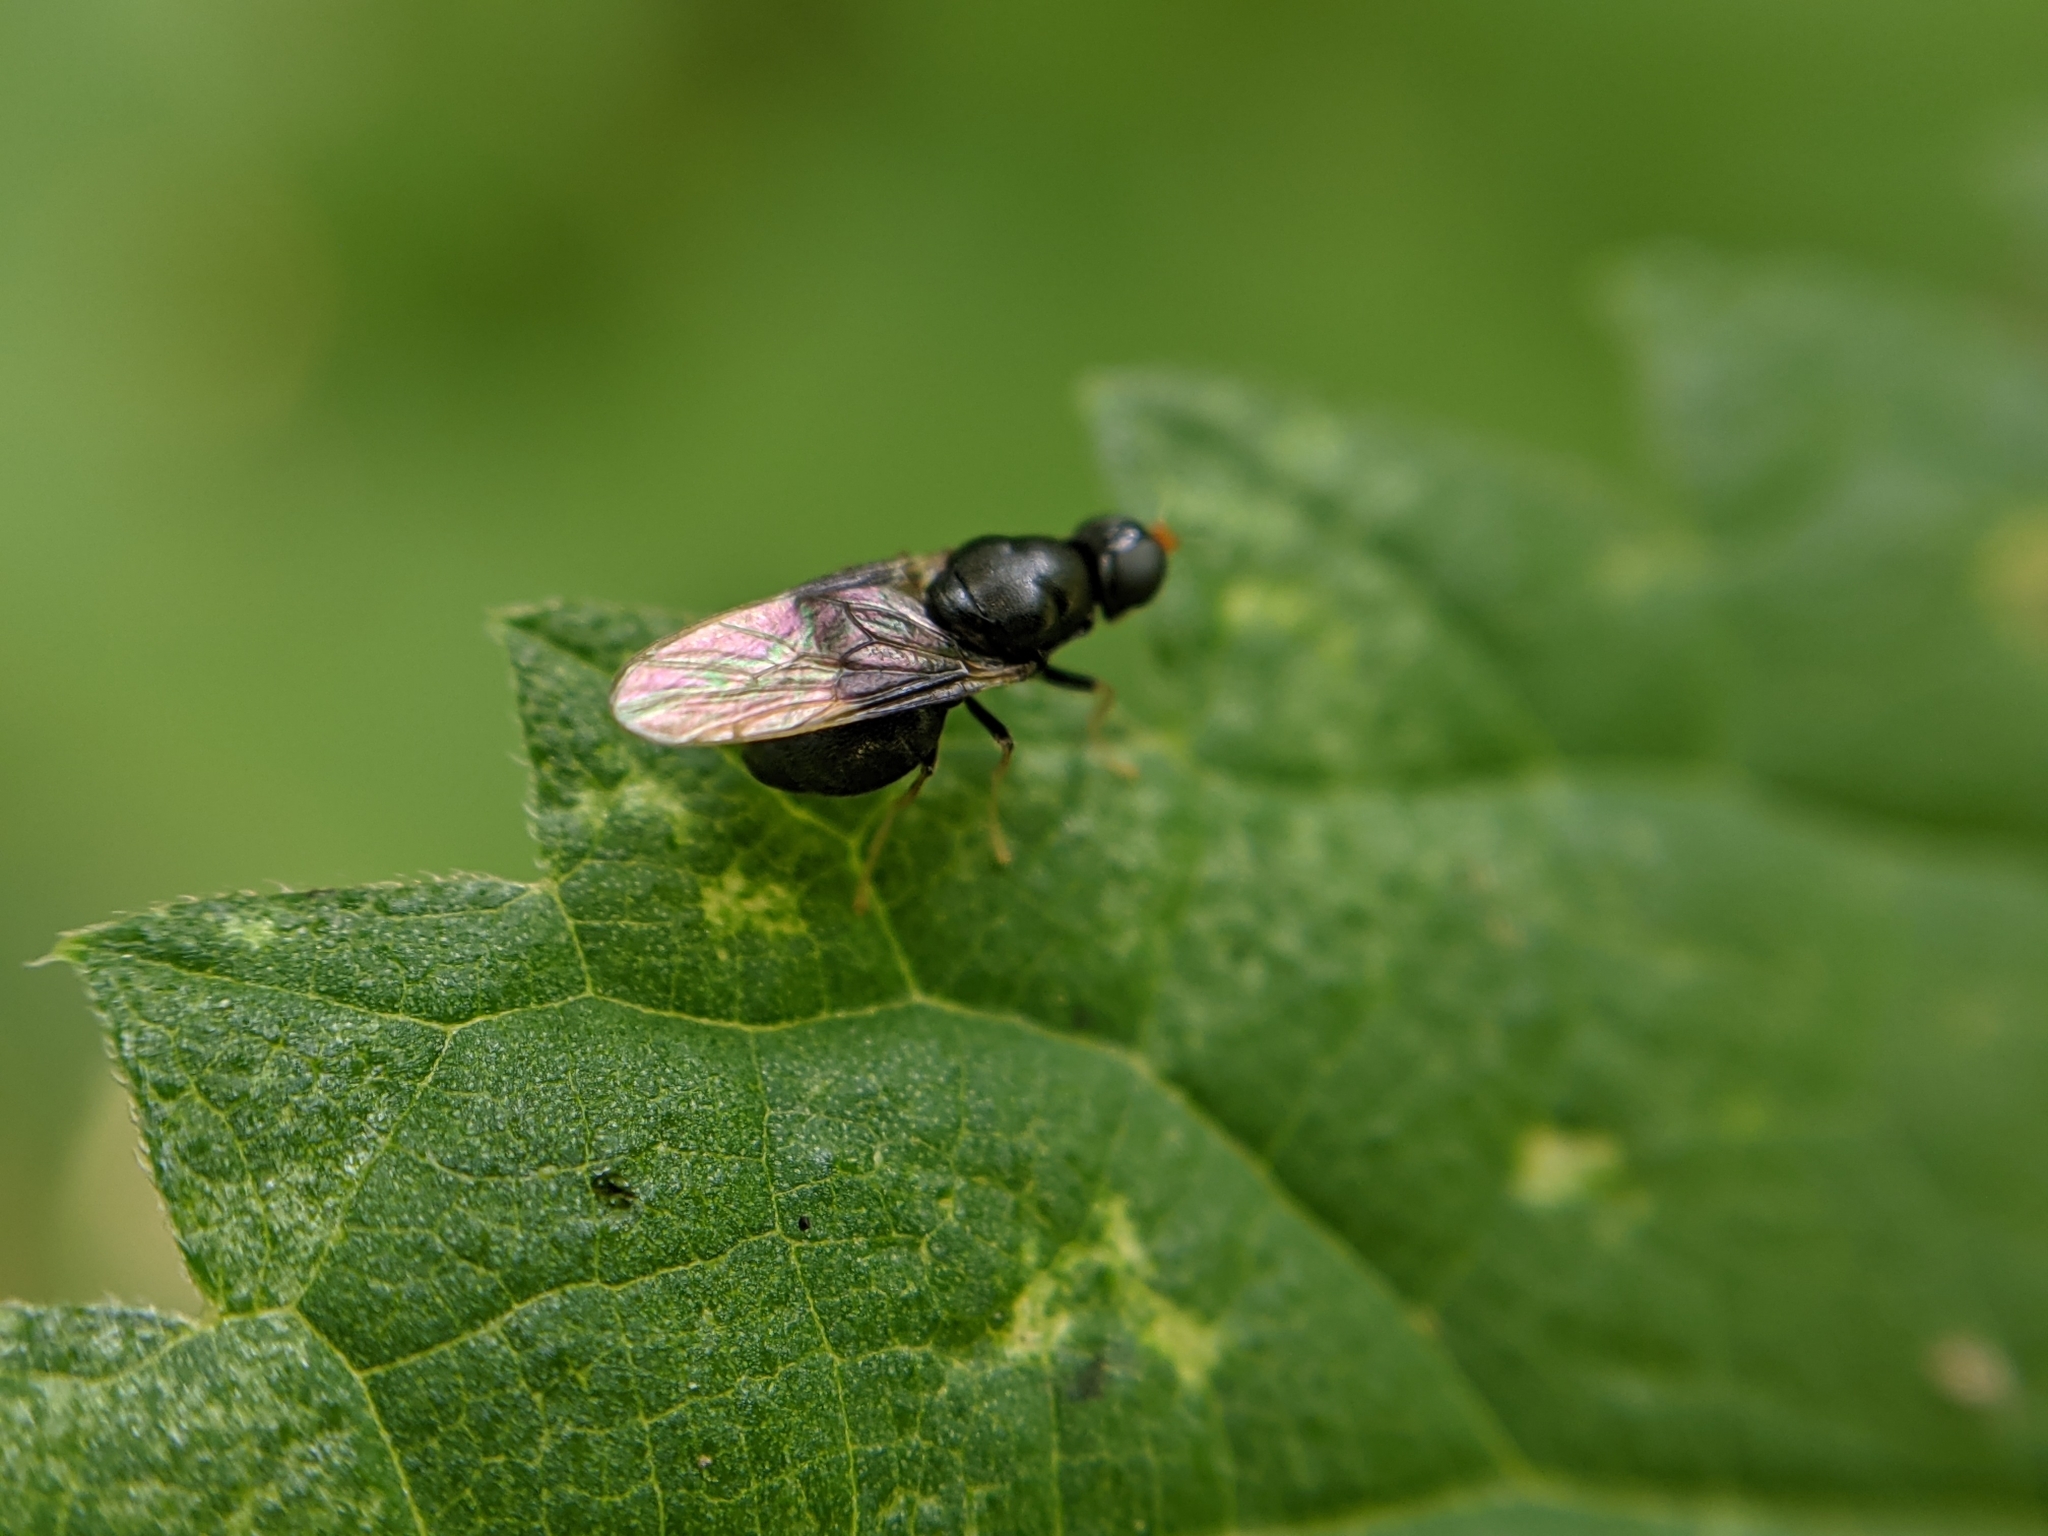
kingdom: Animalia
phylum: Arthropoda
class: Insecta
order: Diptera
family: Stratiomyidae
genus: Pachygaster
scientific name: Pachygaster atra
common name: Dark-winged black
